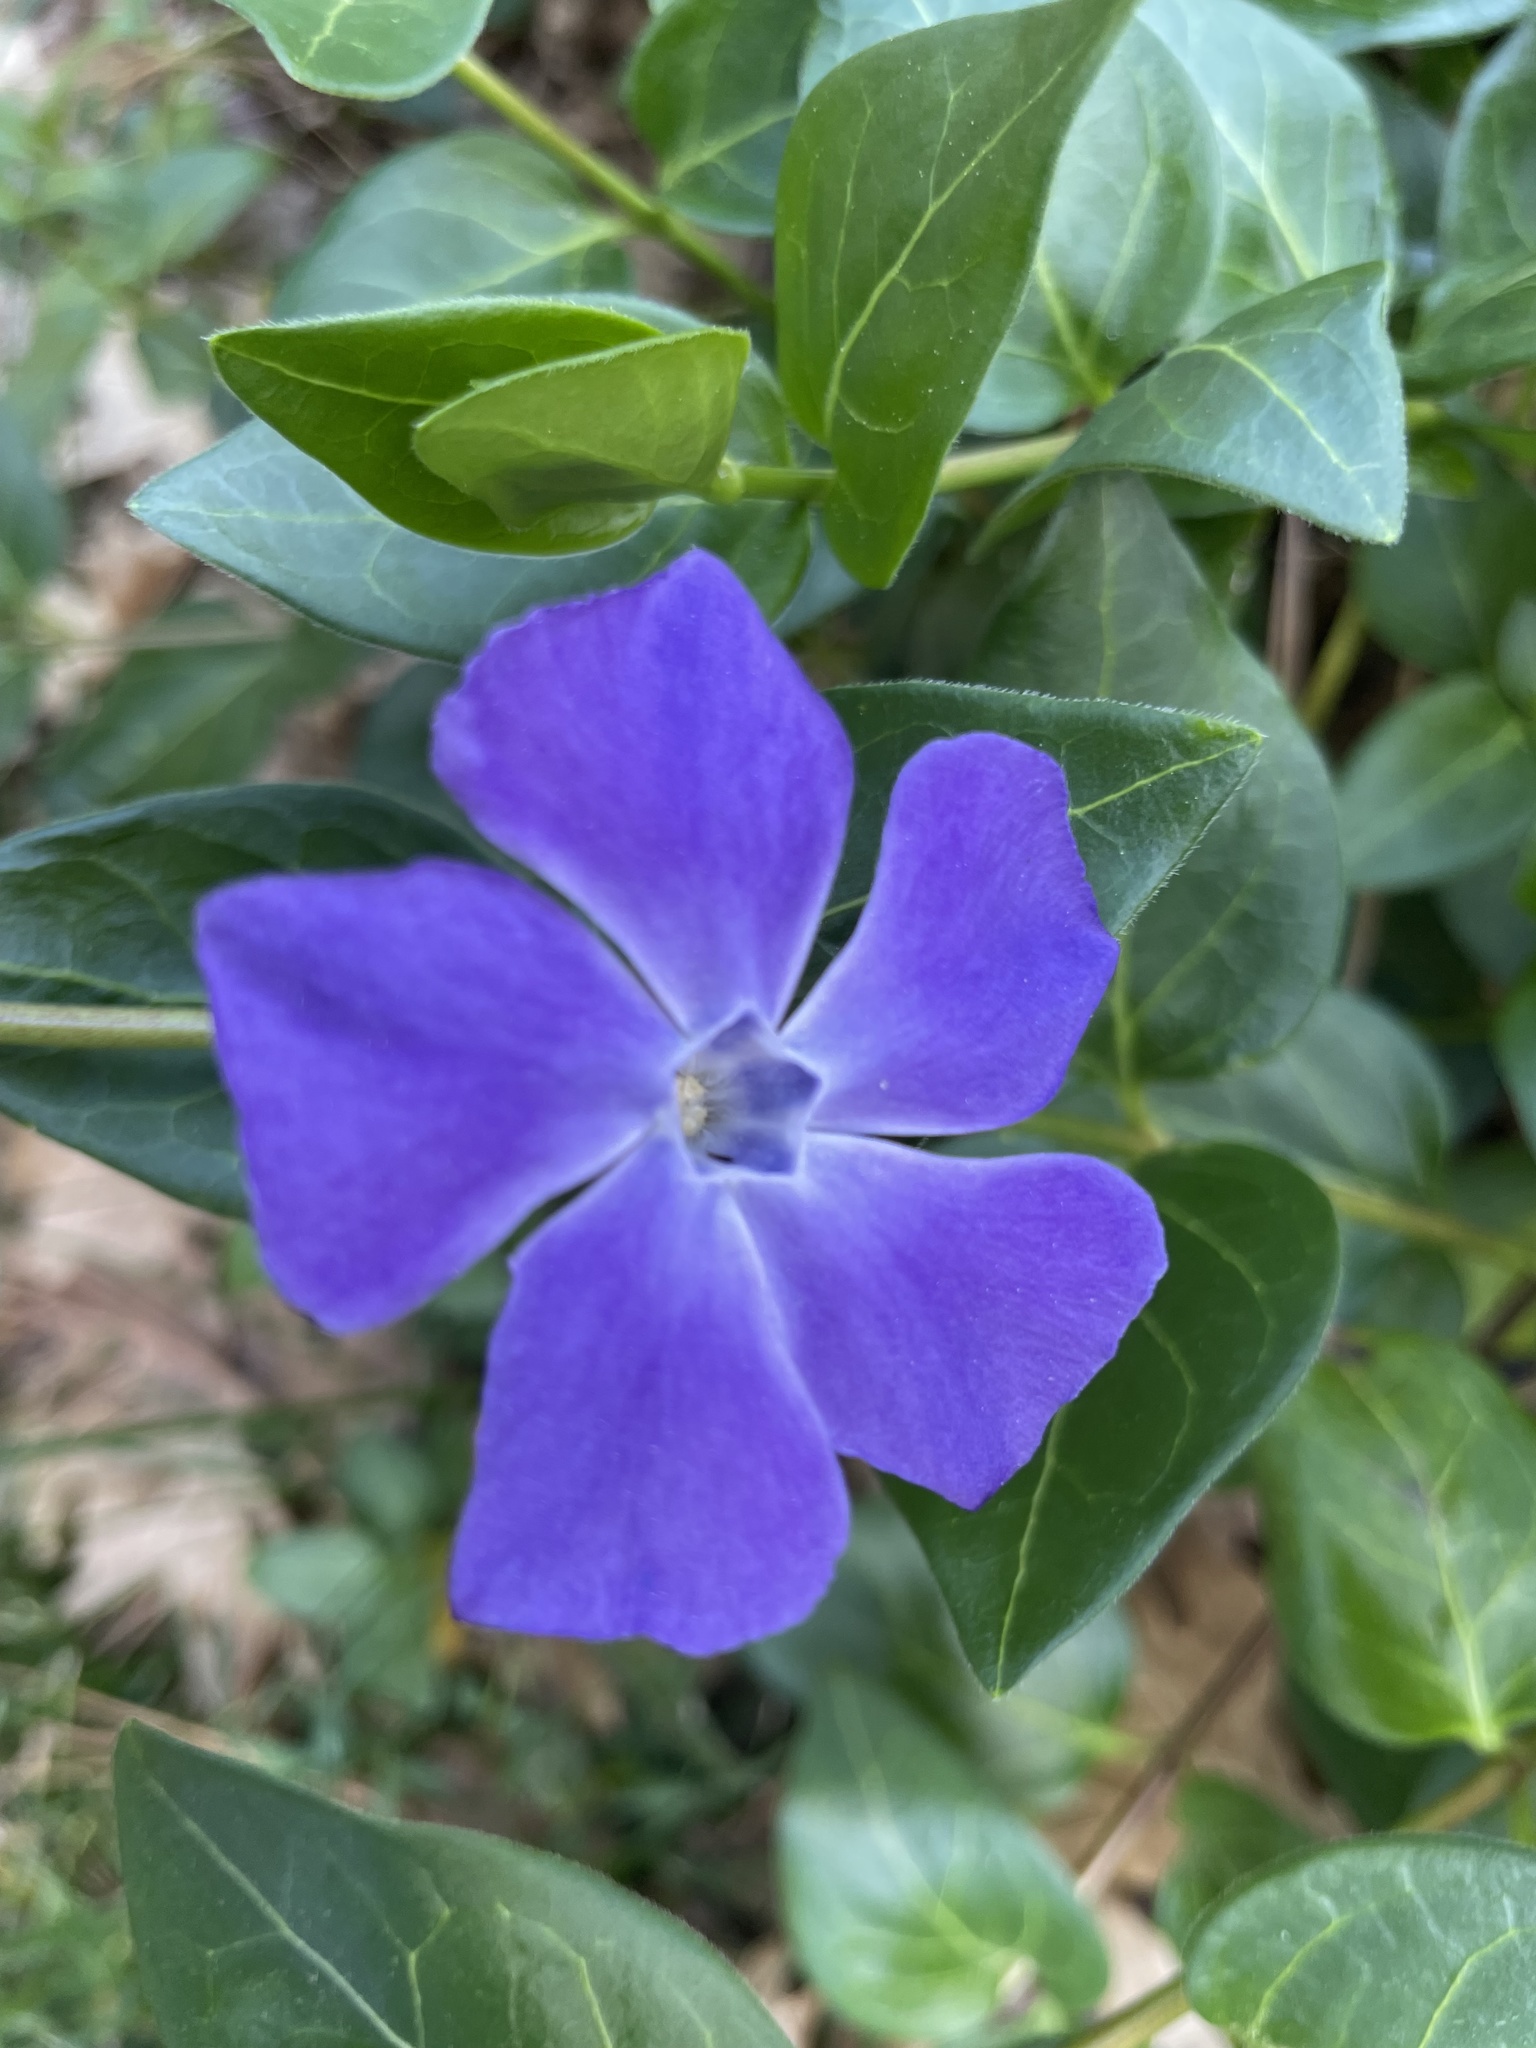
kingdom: Plantae
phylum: Tracheophyta
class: Magnoliopsida
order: Gentianales
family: Apocynaceae
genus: Vinca
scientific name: Vinca major
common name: Greater periwinkle
